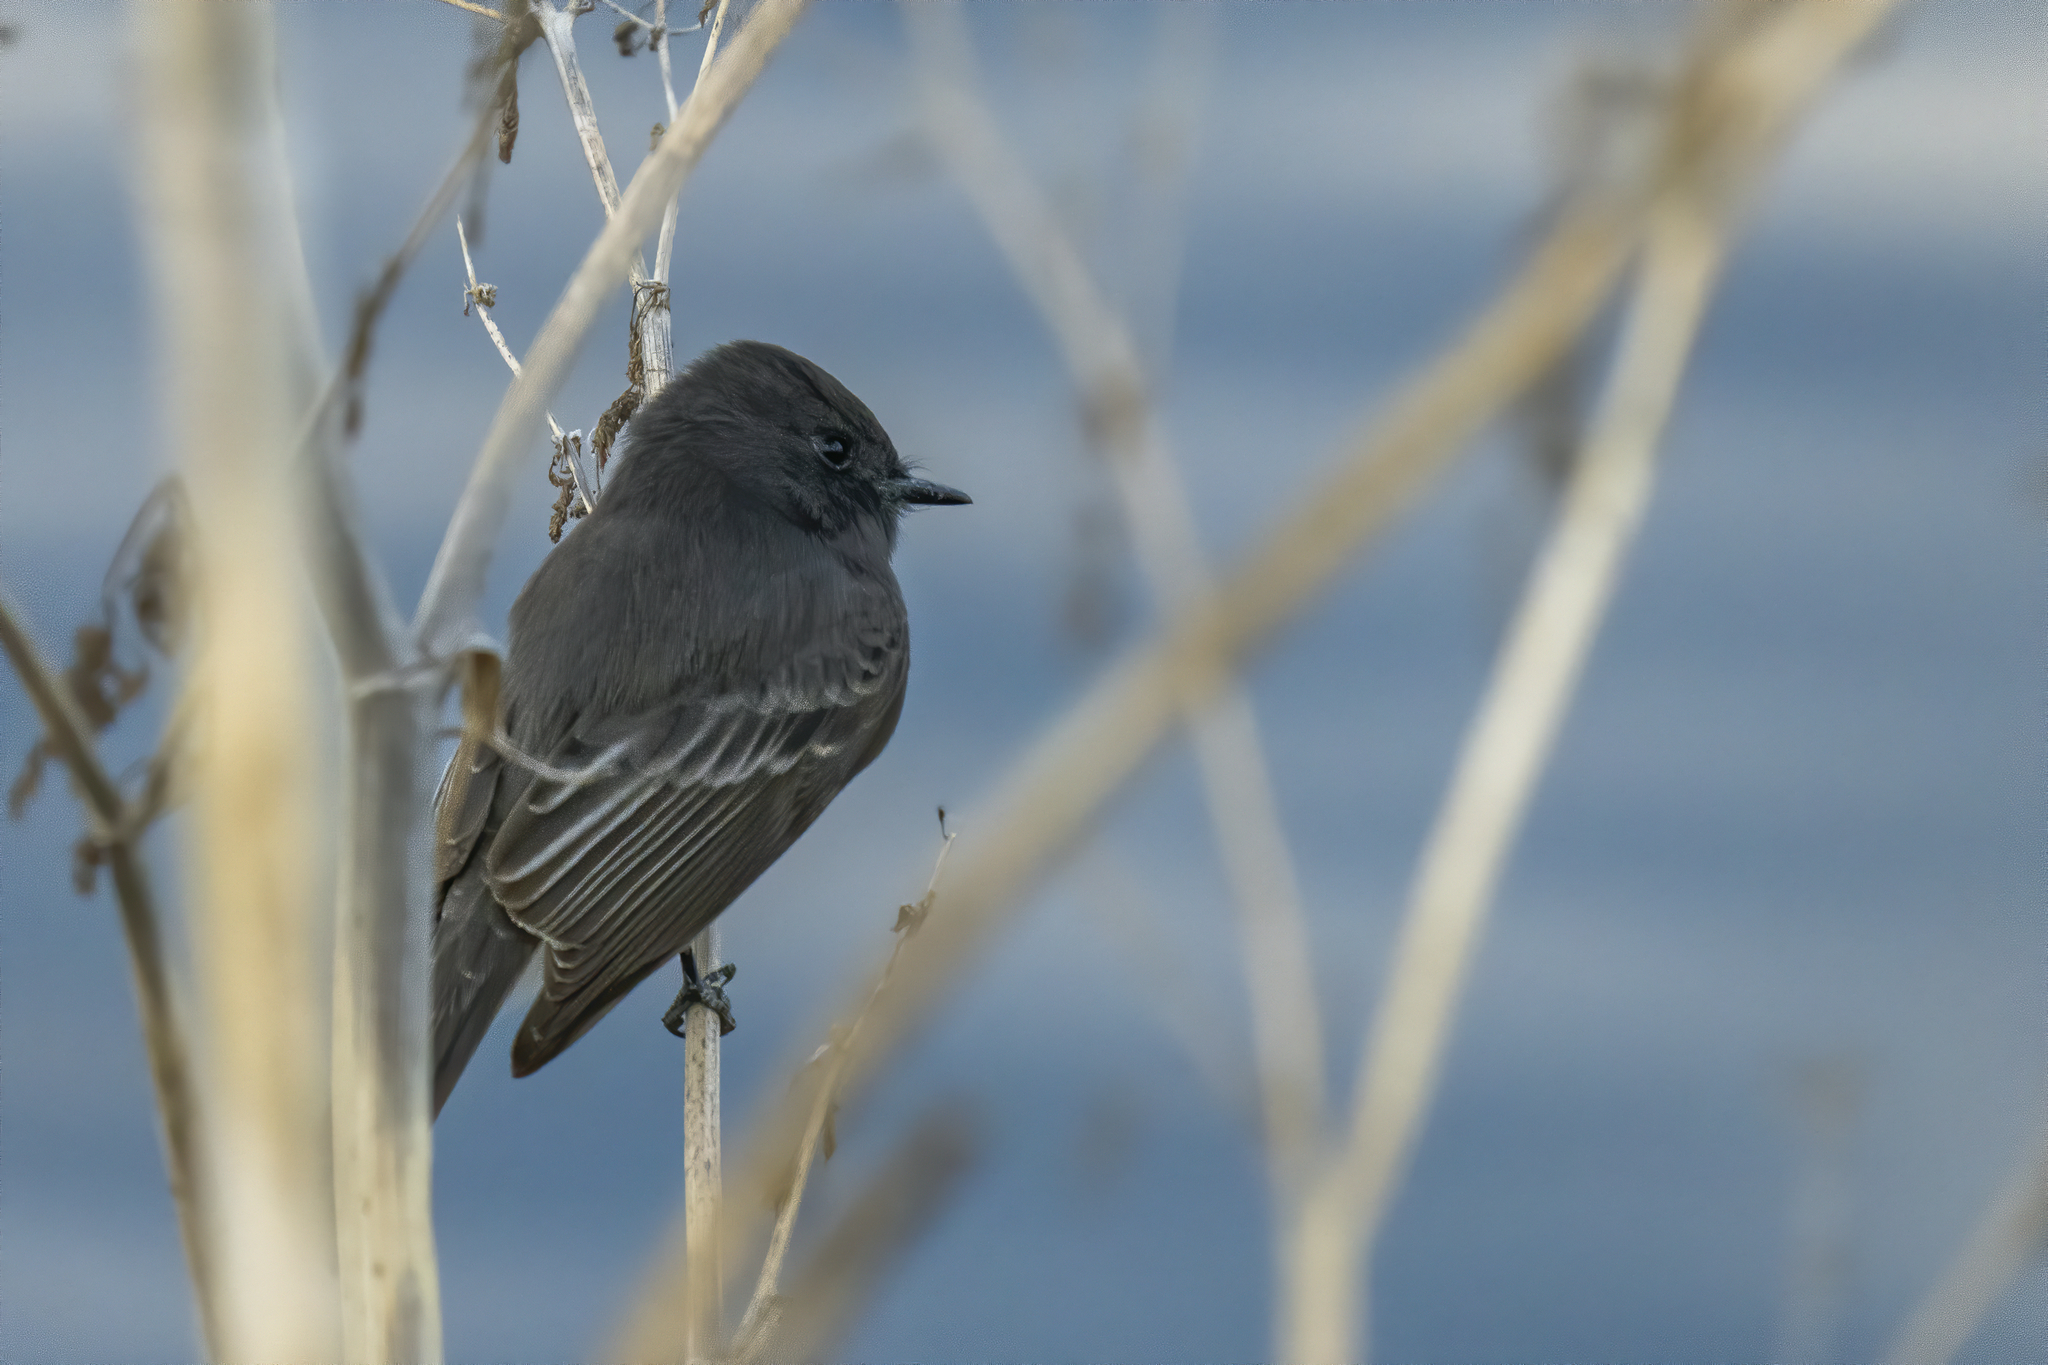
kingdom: Animalia
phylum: Chordata
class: Aves
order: Passeriformes
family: Tyrannidae
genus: Sayornis
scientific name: Sayornis nigricans
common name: Black phoebe
